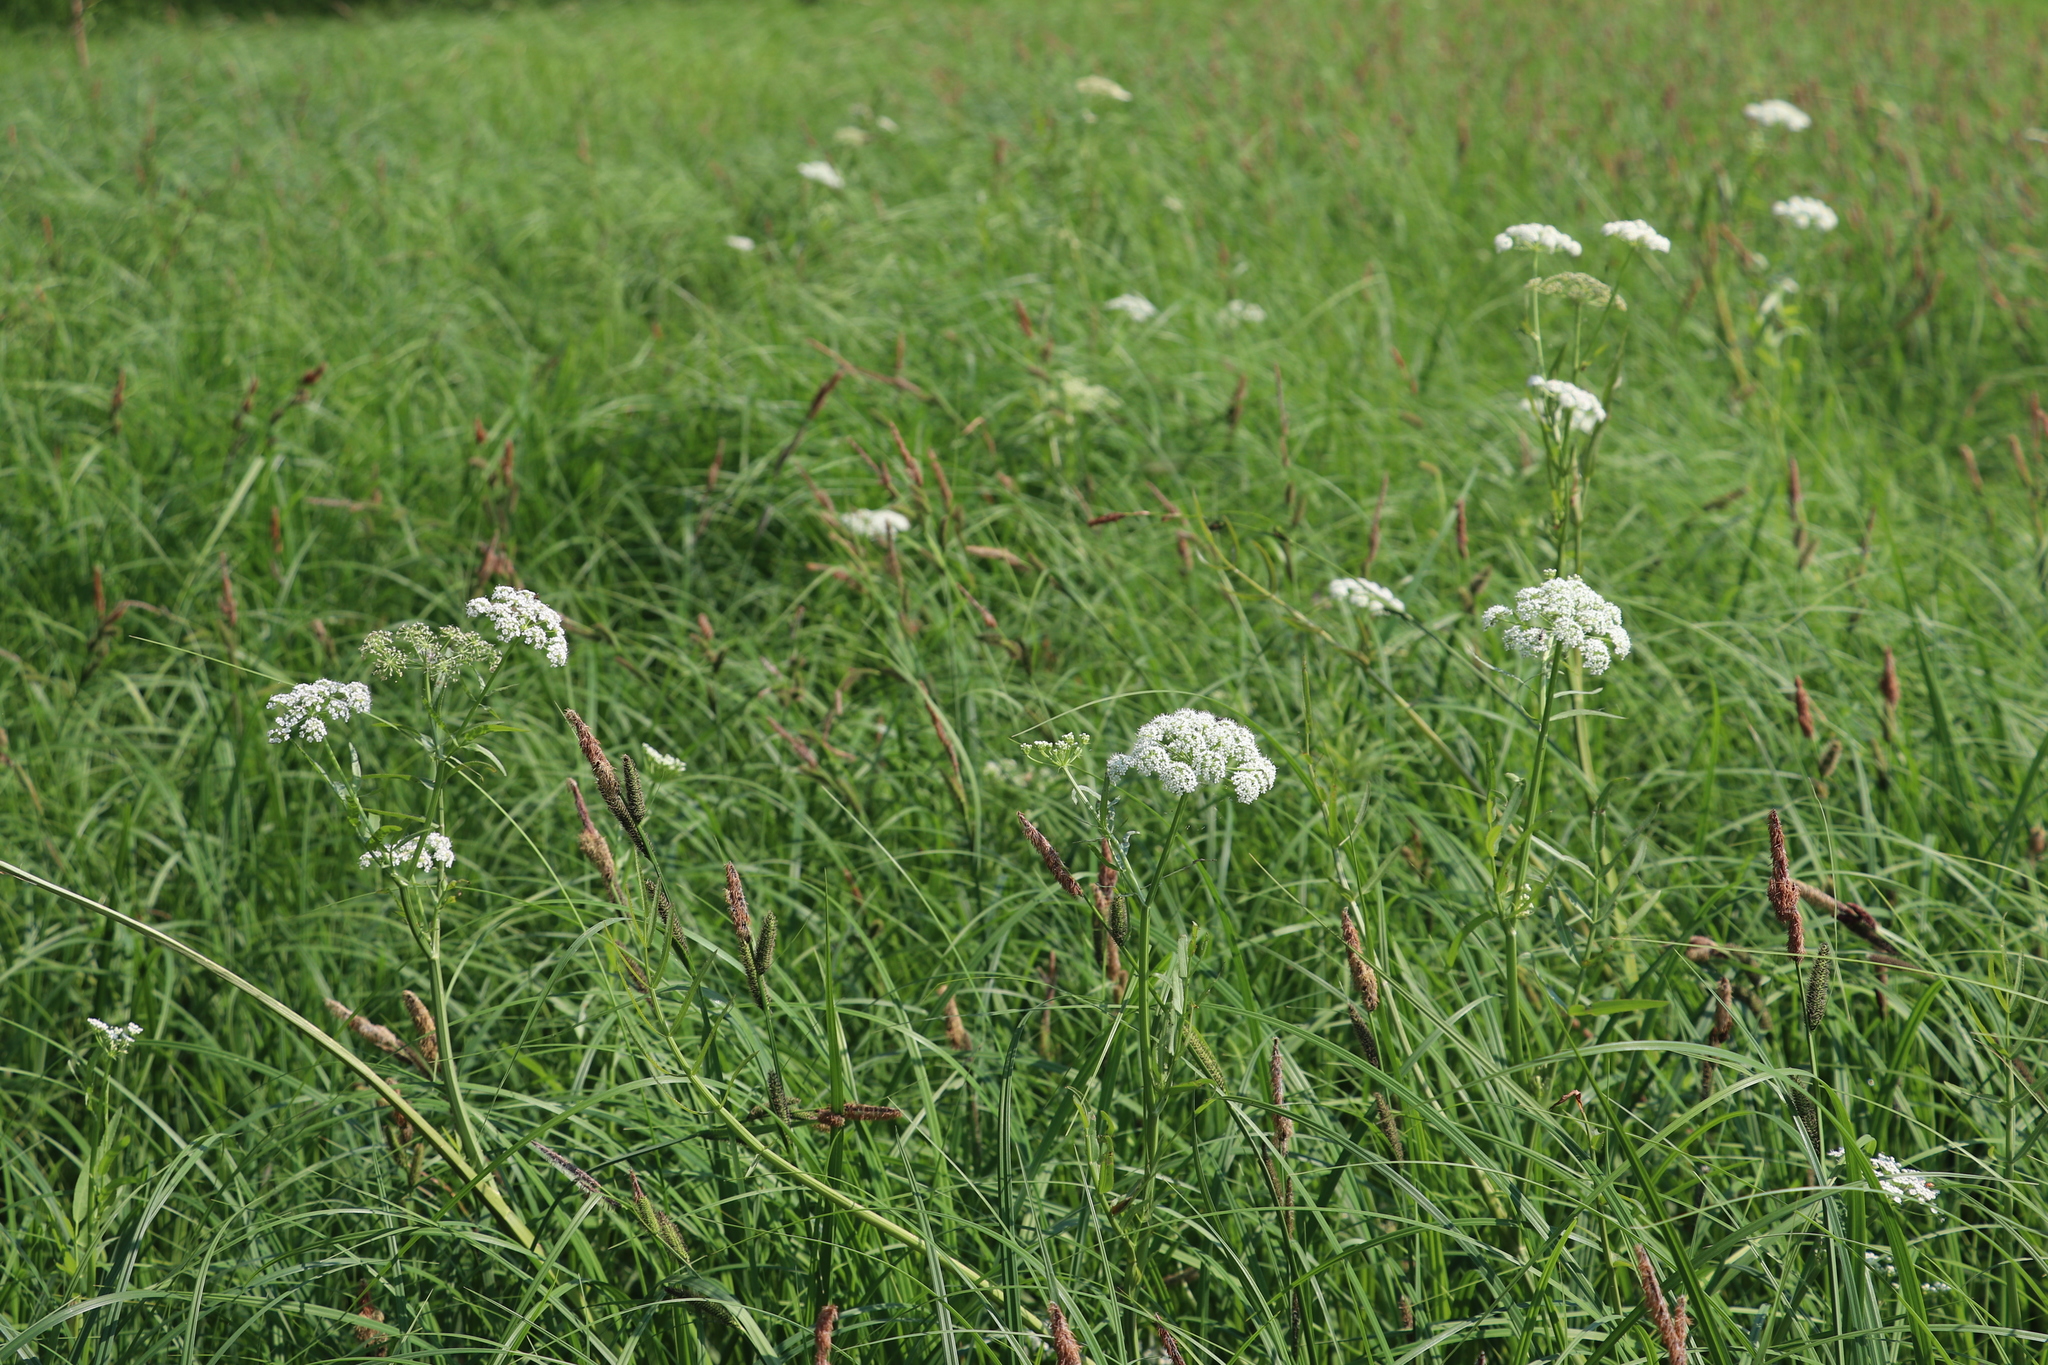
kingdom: Plantae
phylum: Tracheophyta
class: Magnoliopsida
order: Apiales
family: Apiaceae
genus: Cicuta
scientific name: Cicuta virosa
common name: Cowbane
